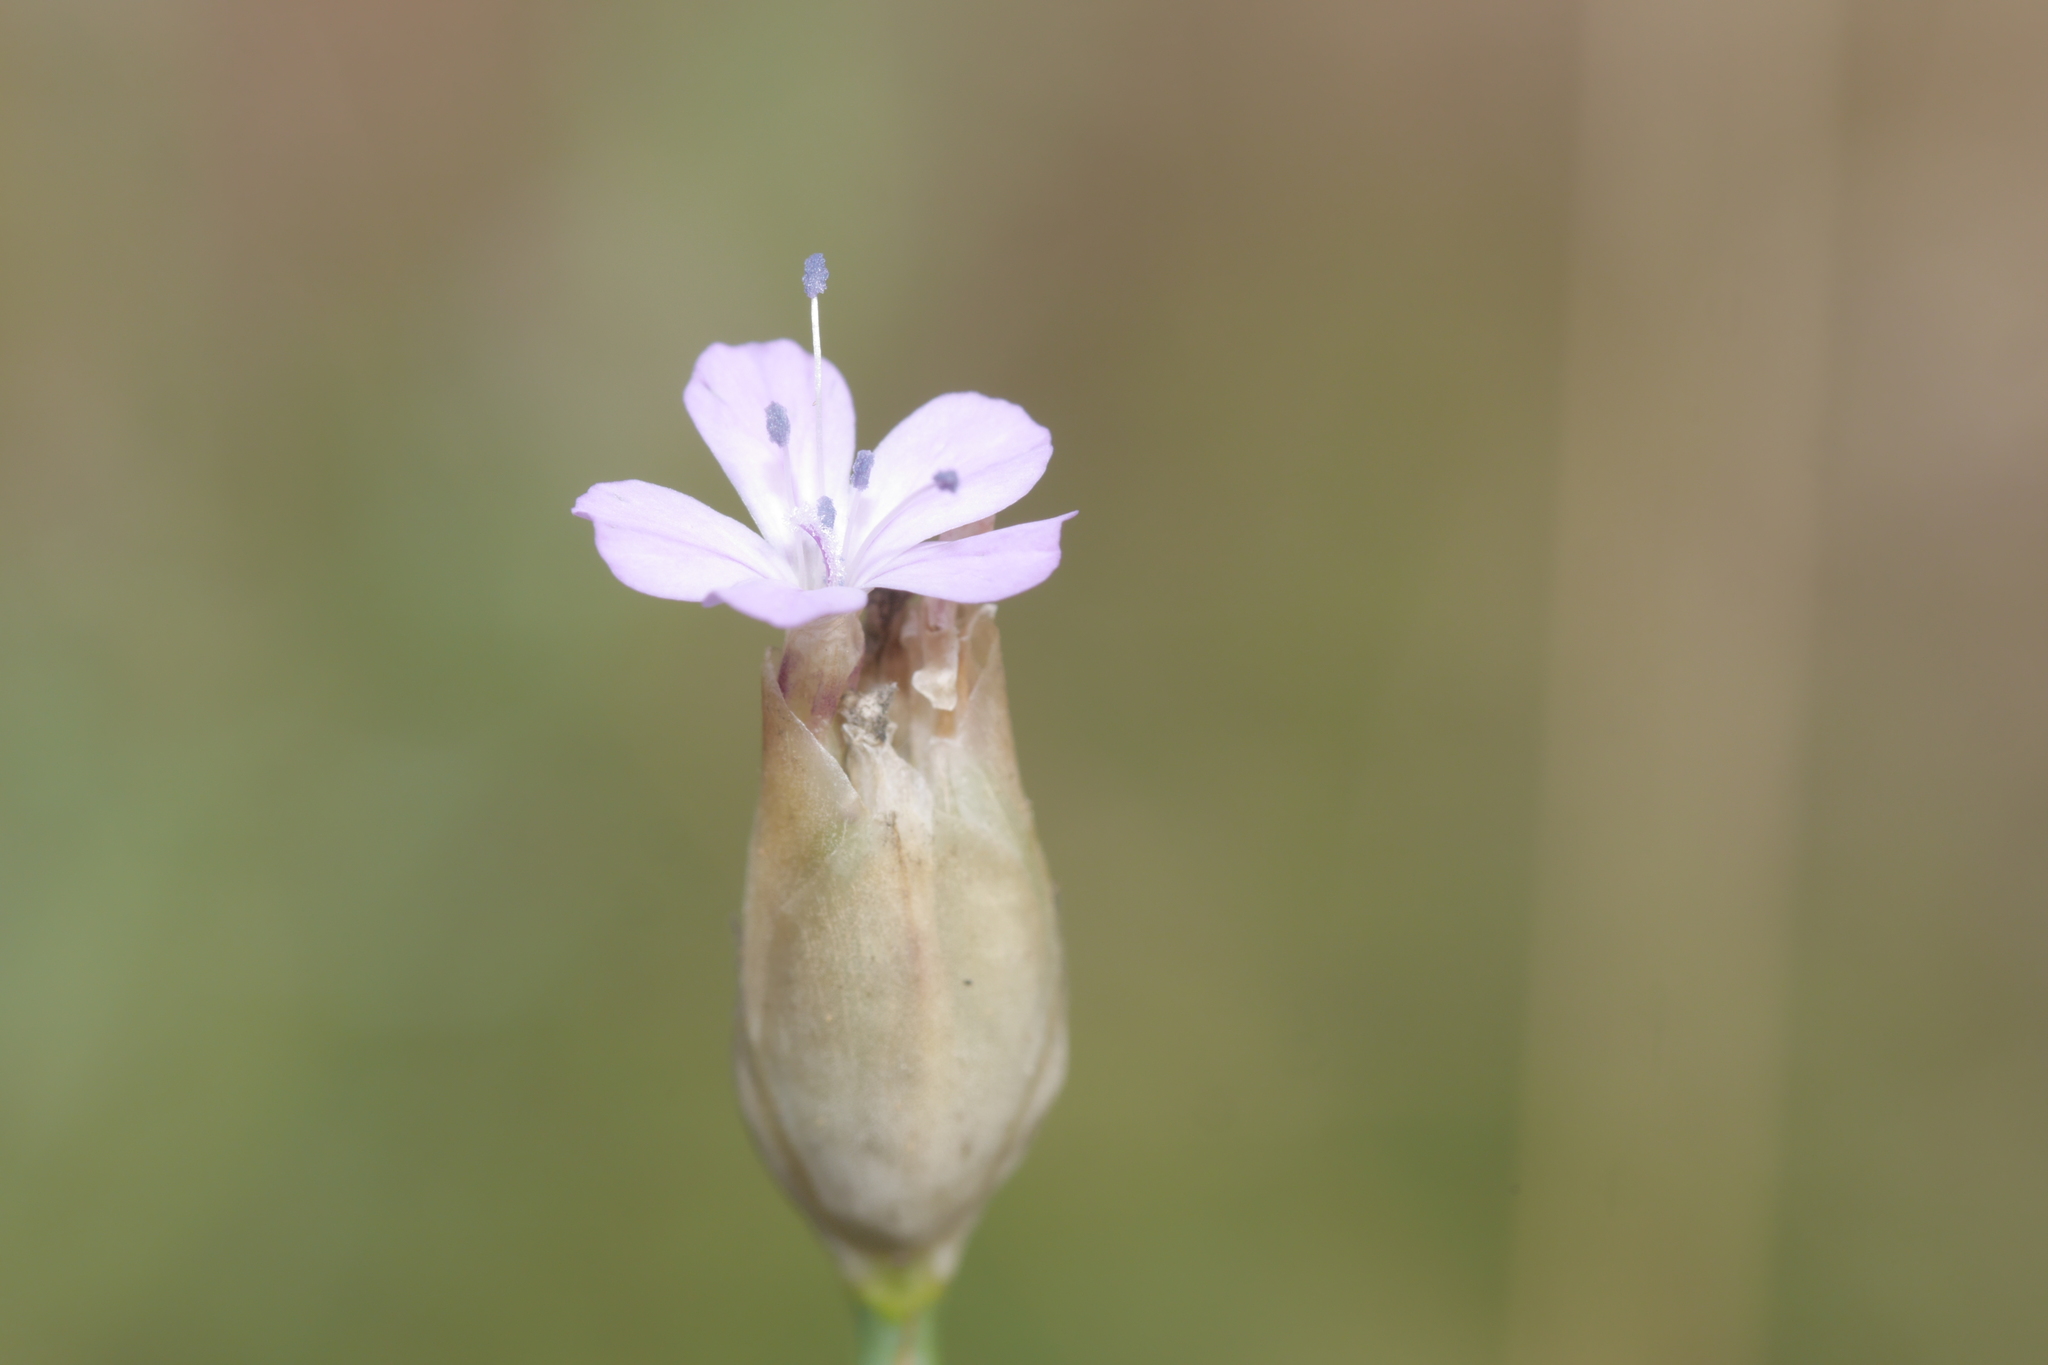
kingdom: Plantae
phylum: Tracheophyta
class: Magnoliopsida
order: Caryophyllales
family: Caryophyllaceae
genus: Petrorhagia
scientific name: Petrorhagia prolifera
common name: Proliferous pink
